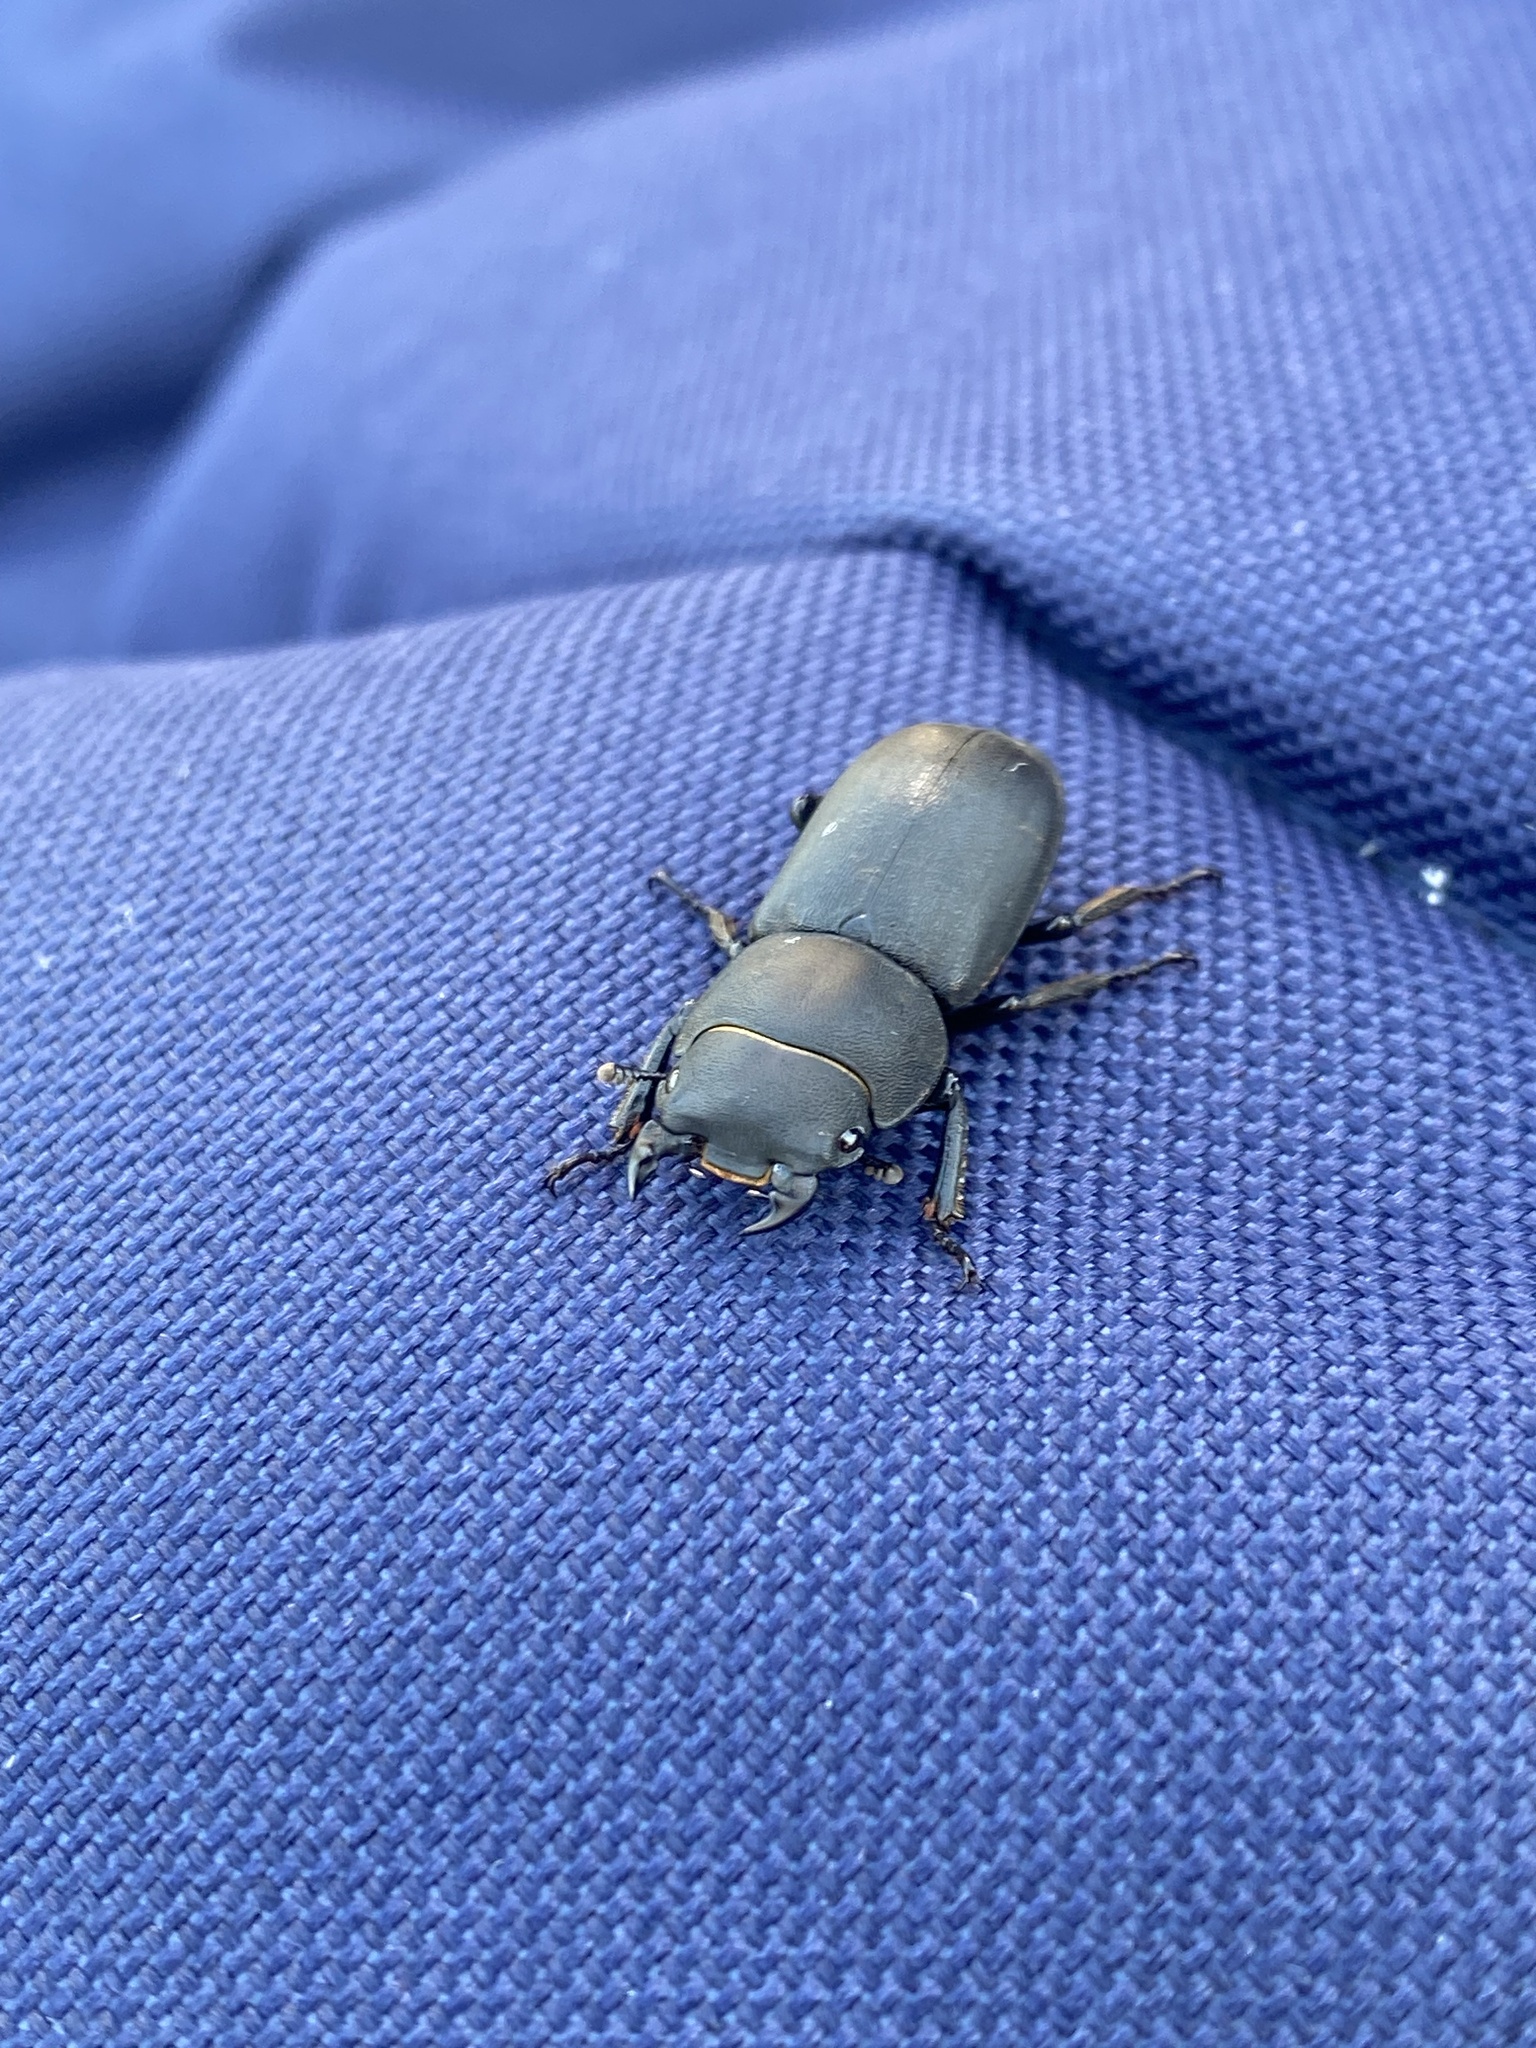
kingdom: Animalia
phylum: Arthropoda
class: Insecta
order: Coleoptera
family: Lucanidae
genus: Dorcus
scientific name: Dorcus parallelipipedus
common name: Lesser stag beetle
